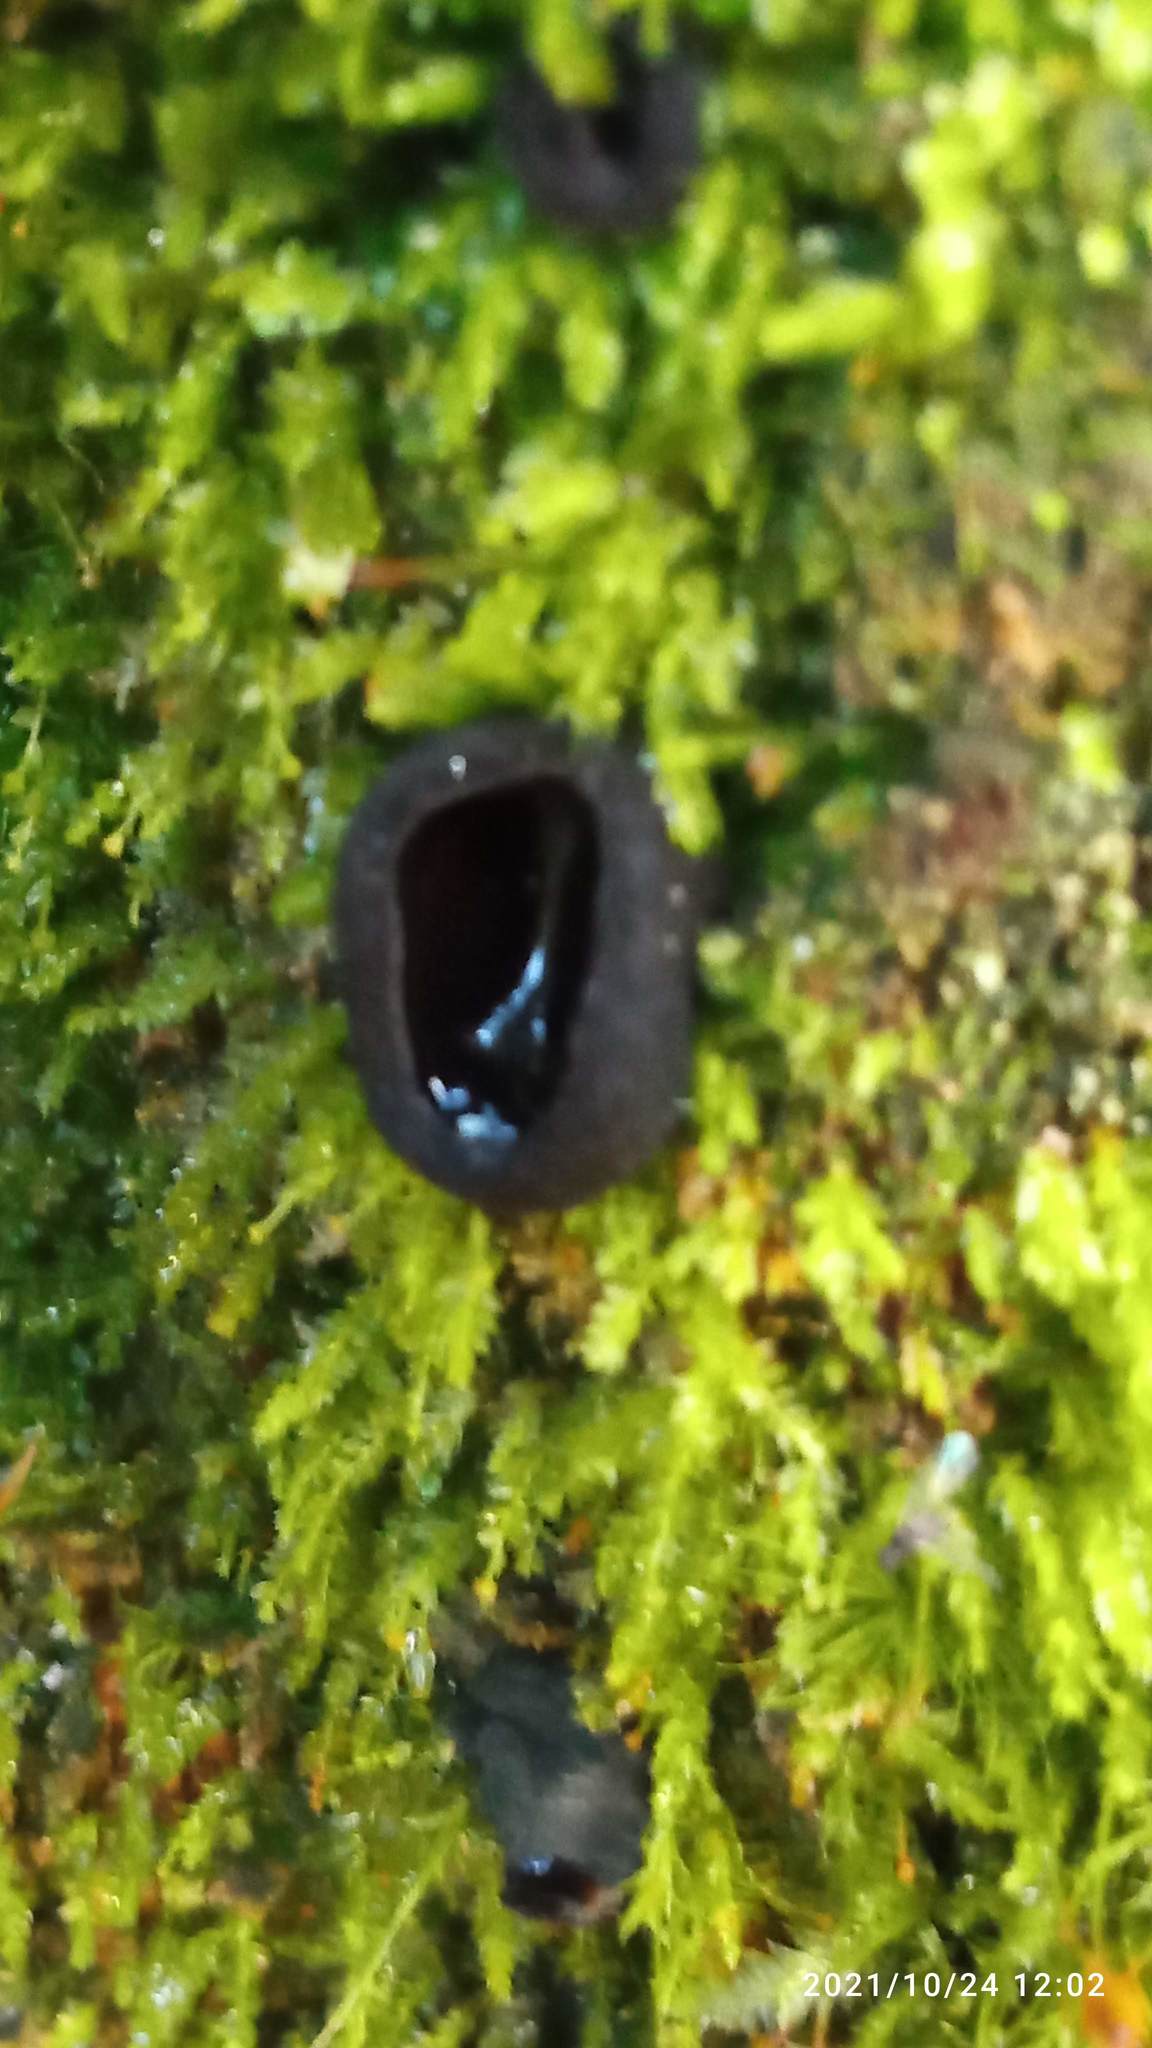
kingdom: Fungi
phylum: Ascomycota
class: Pezizomycetes
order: Pezizales
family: Sarcosomataceae
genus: Pseudoplectania
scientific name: Pseudoplectania nigrella
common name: Ebony cup
